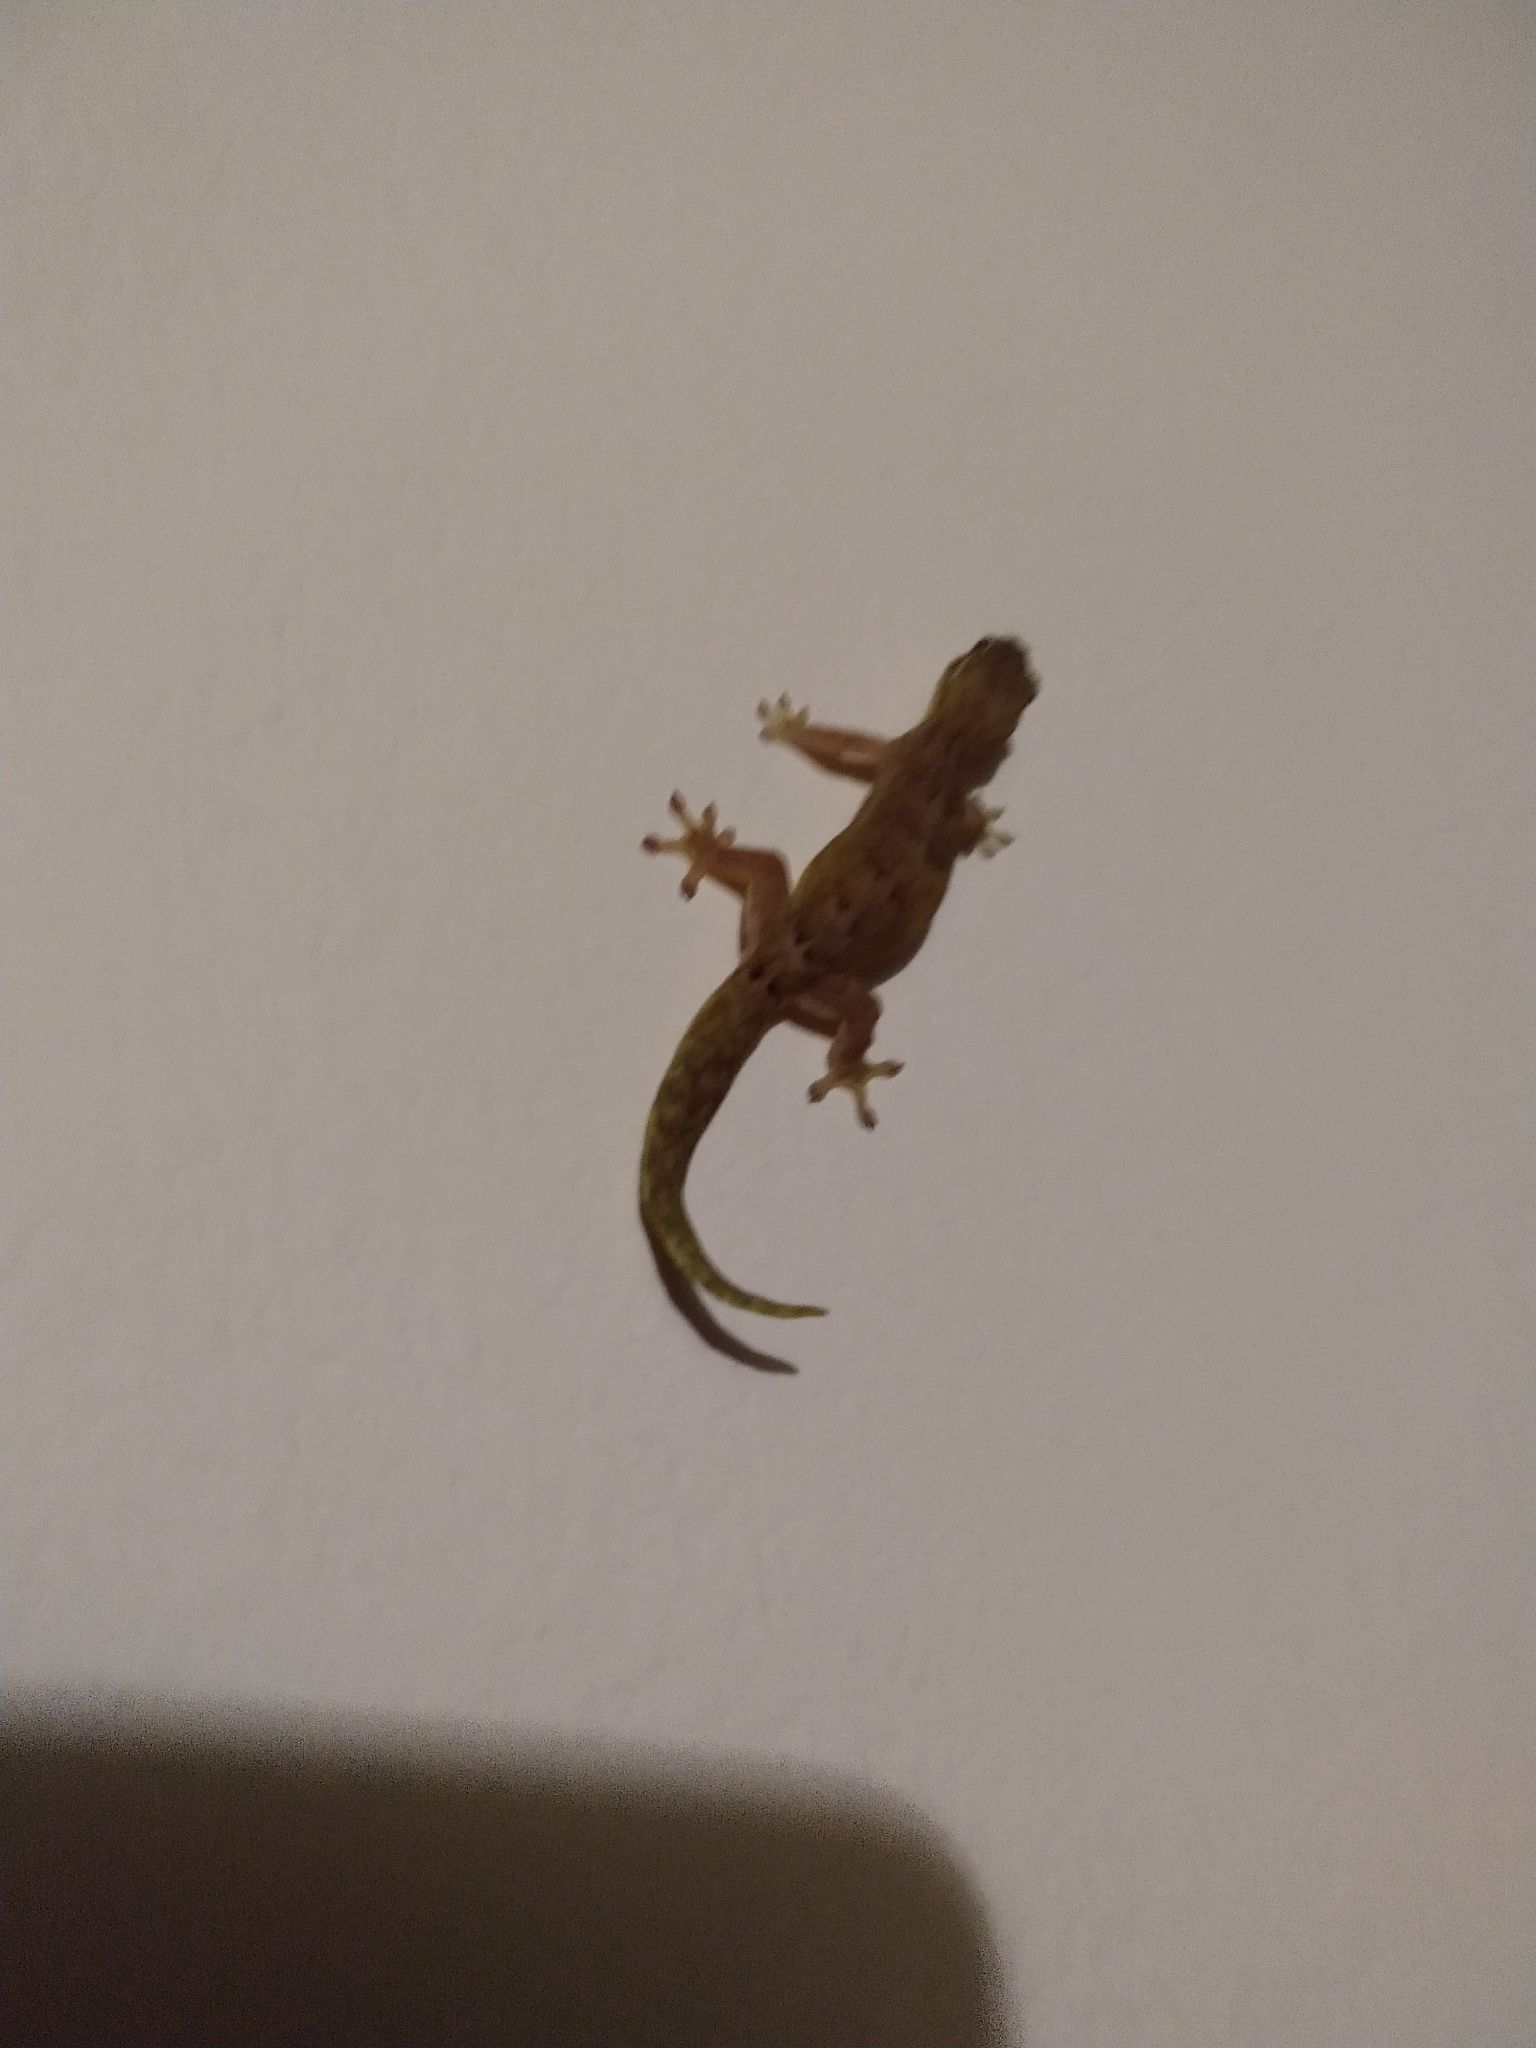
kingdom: Animalia
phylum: Chordata
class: Squamata
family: Gekkonidae
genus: Lepidodactylus
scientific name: Lepidodactylus lugubris
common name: Mourning gecko
